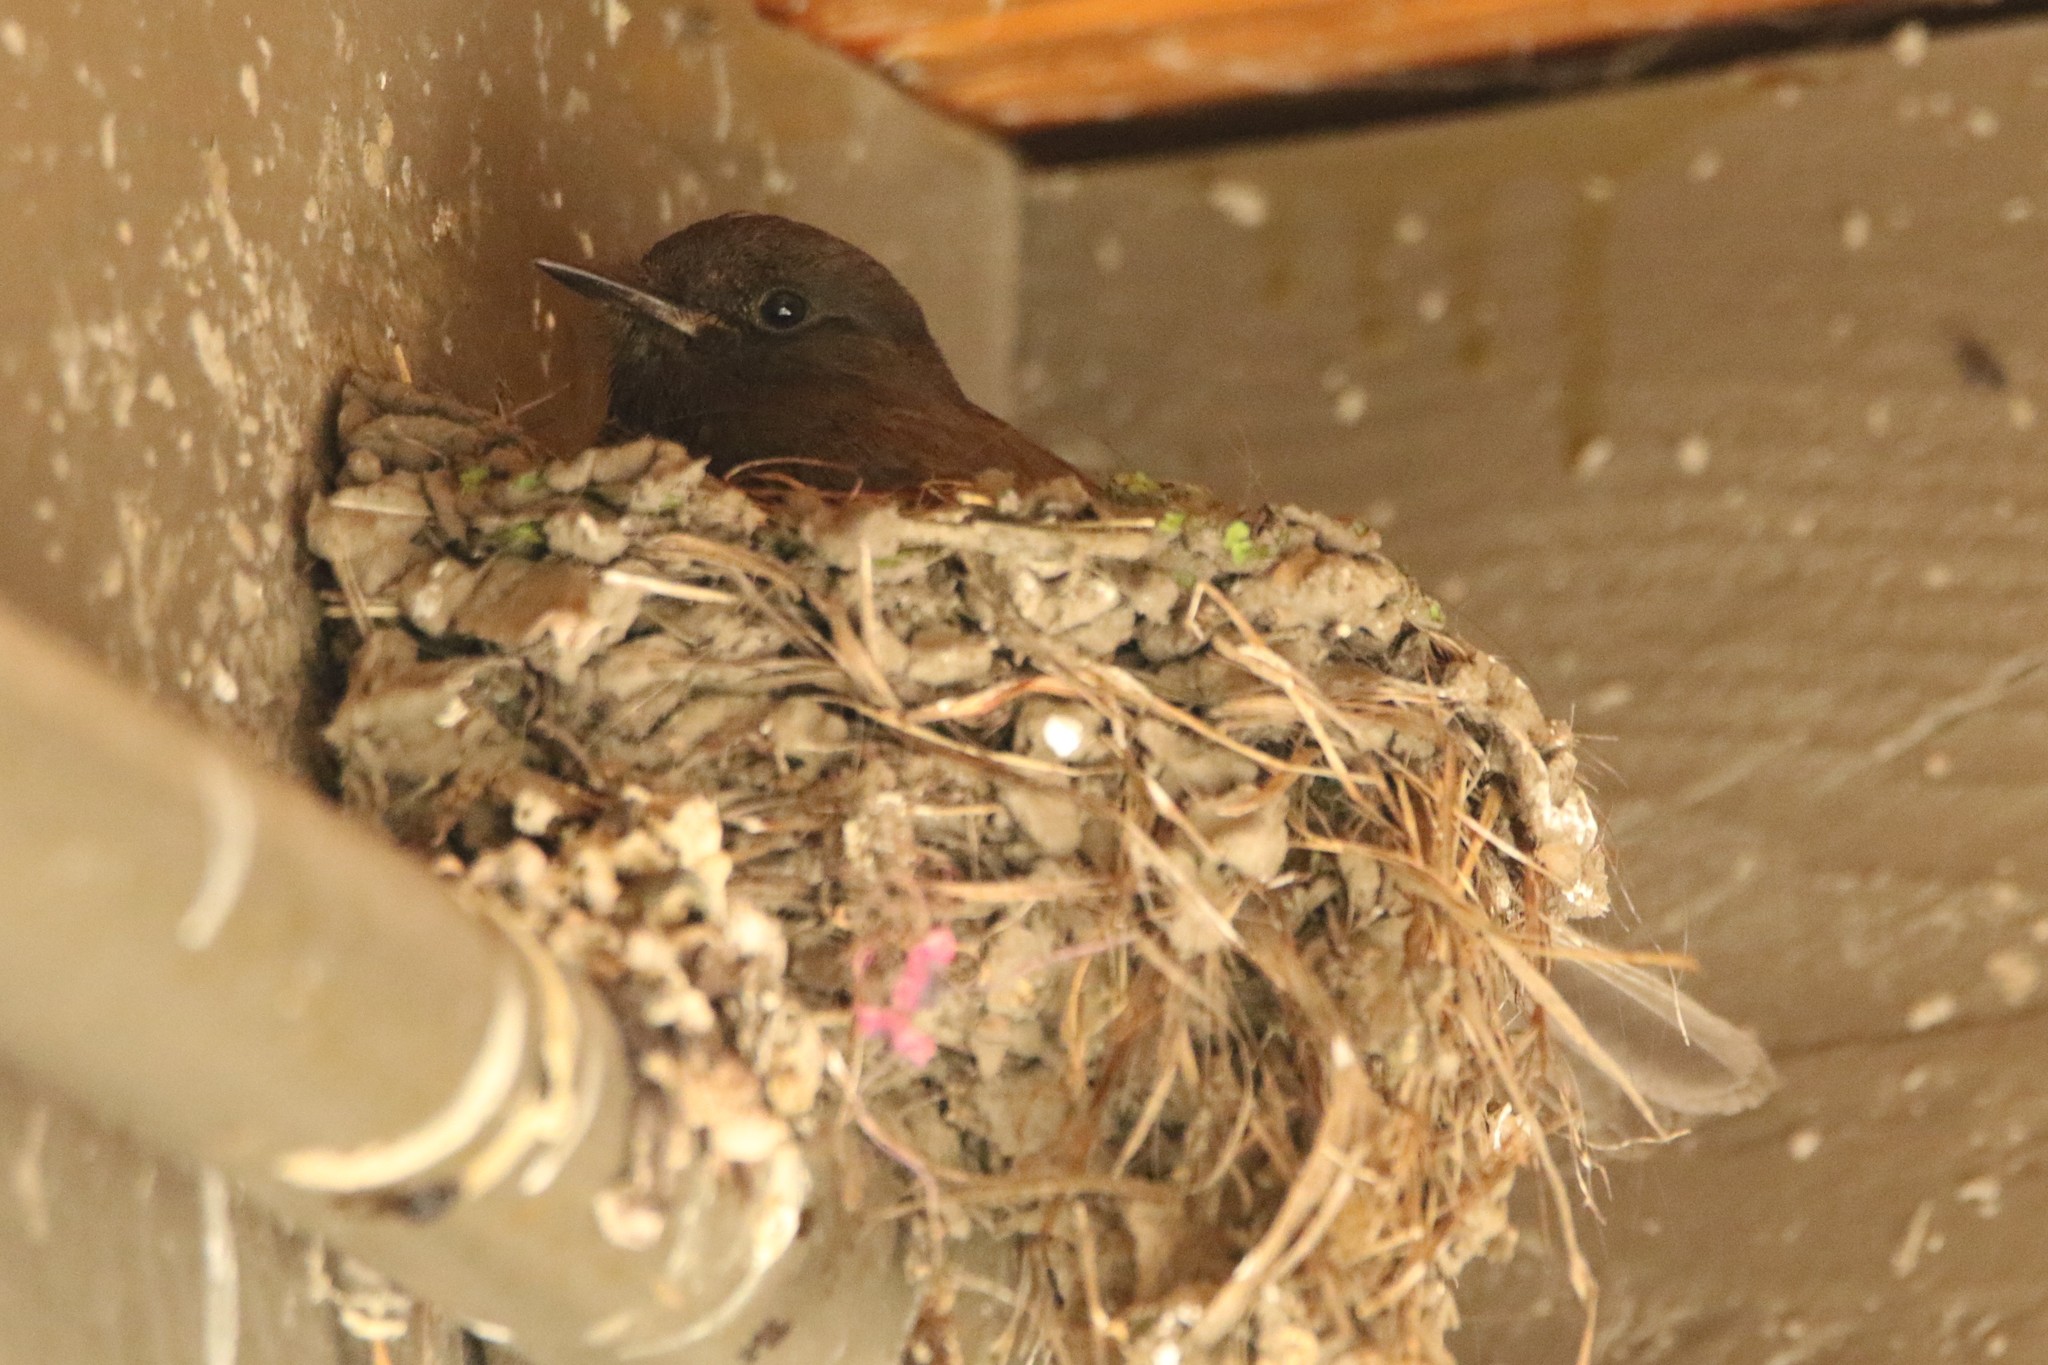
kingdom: Animalia
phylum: Chordata
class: Aves
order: Passeriformes
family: Tyrannidae
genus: Sayornis
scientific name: Sayornis nigricans
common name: Black phoebe
